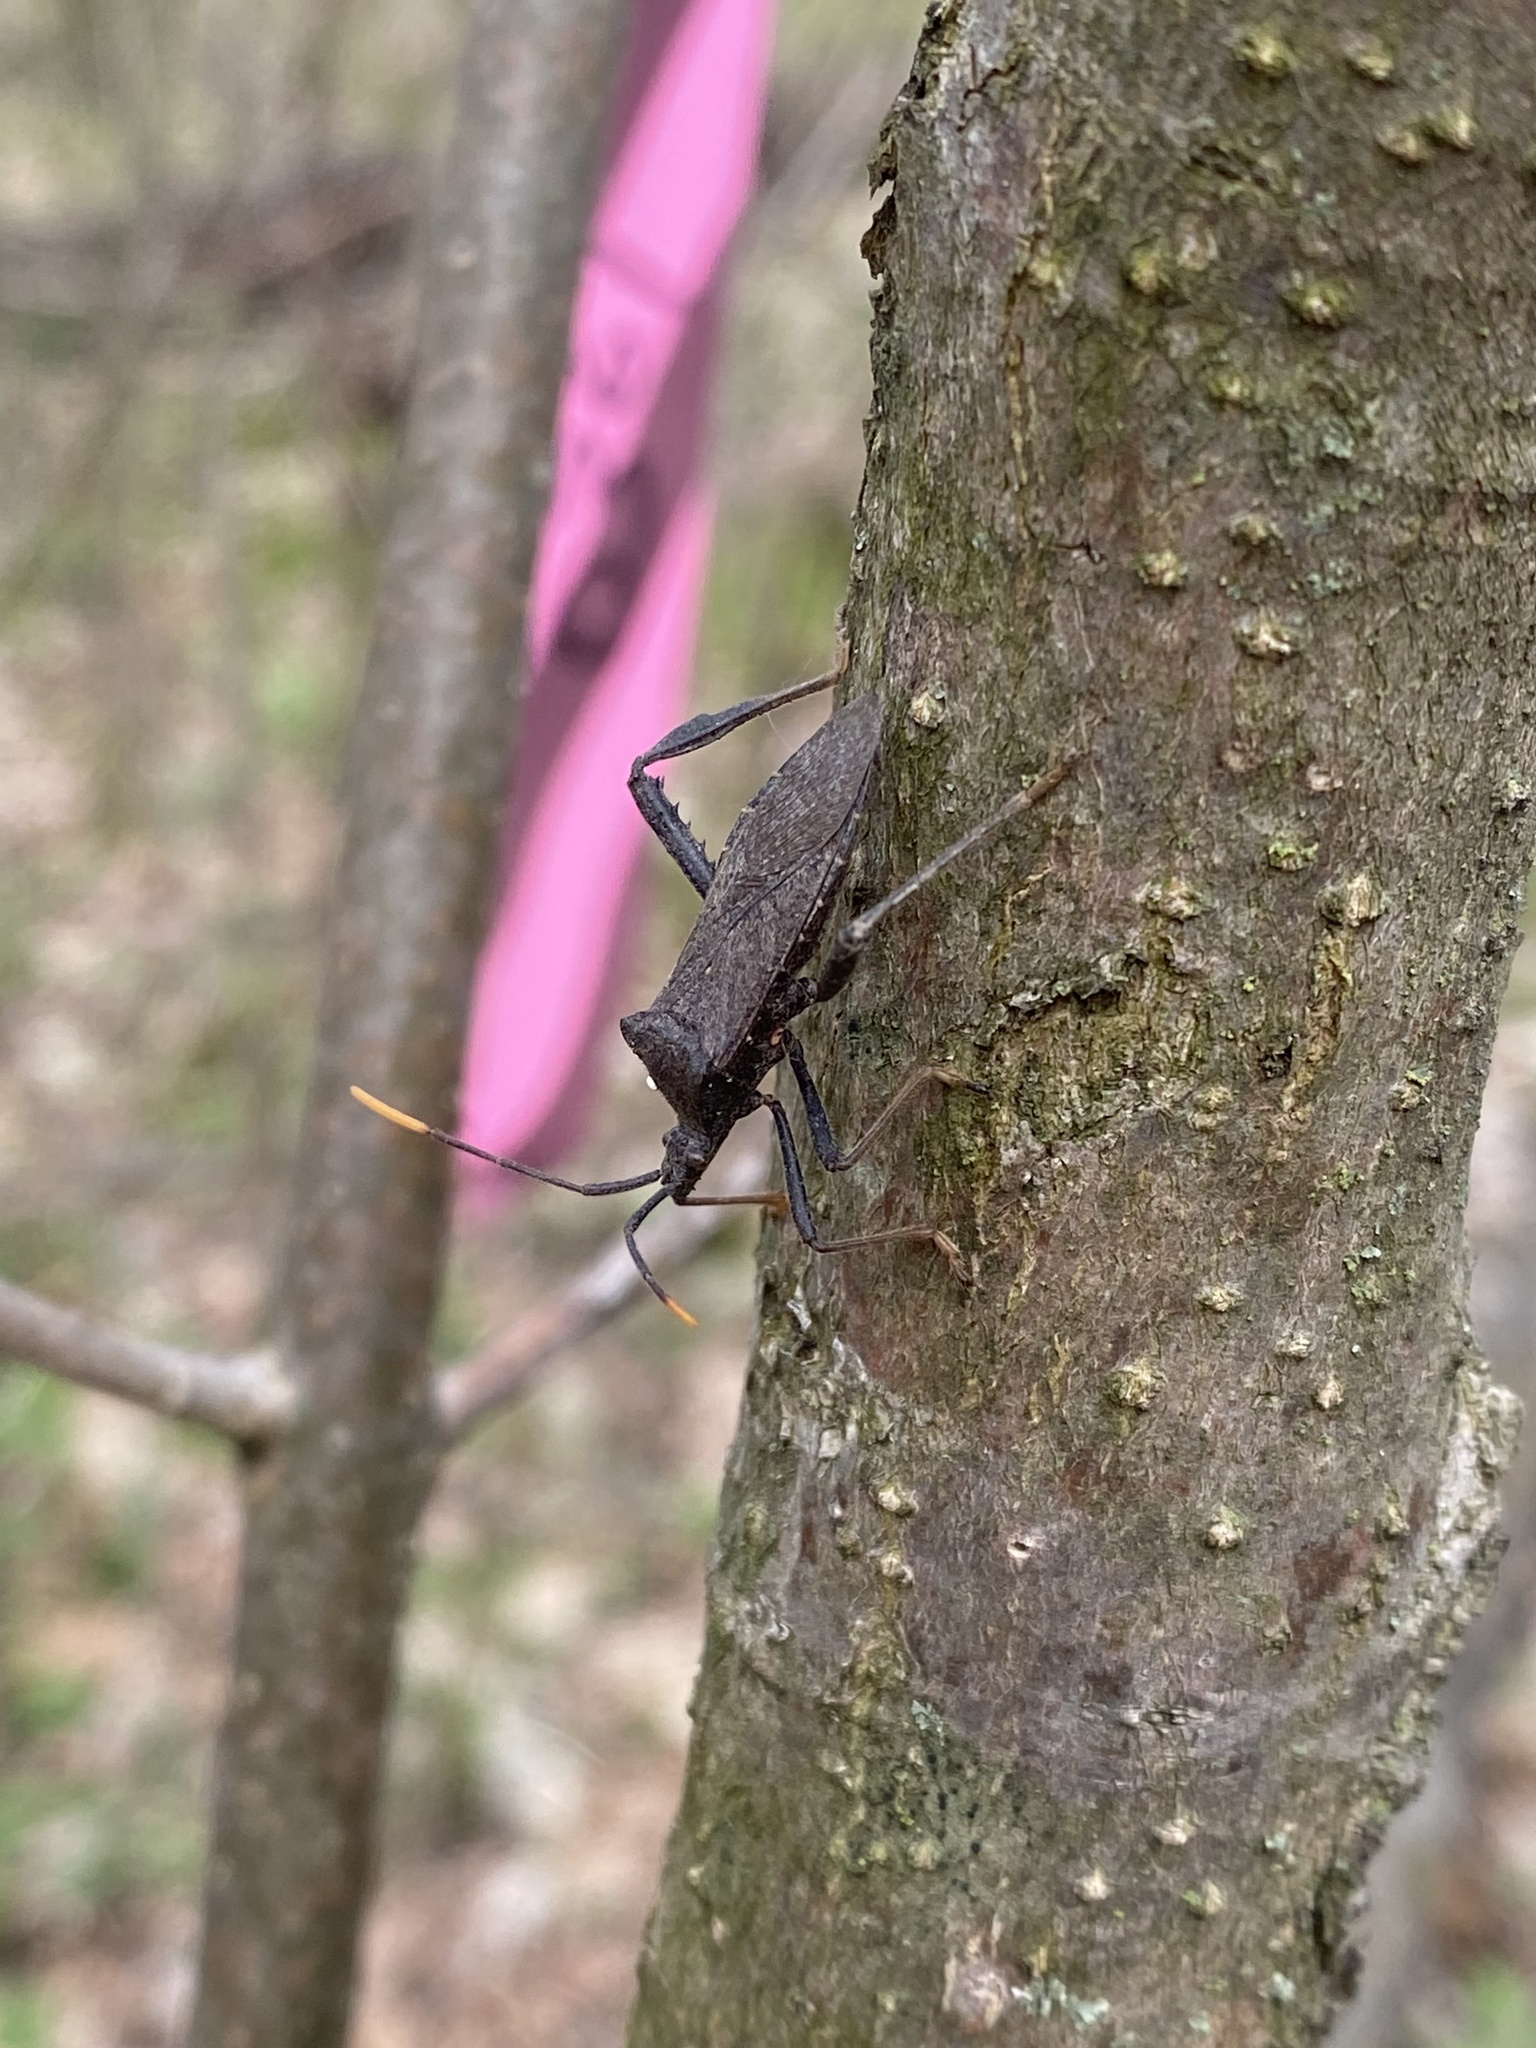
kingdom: Animalia
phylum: Arthropoda
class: Insecta
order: Hemiptera
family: Coreidae
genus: Acanthocephala
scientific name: Acanthocephala terminalis
